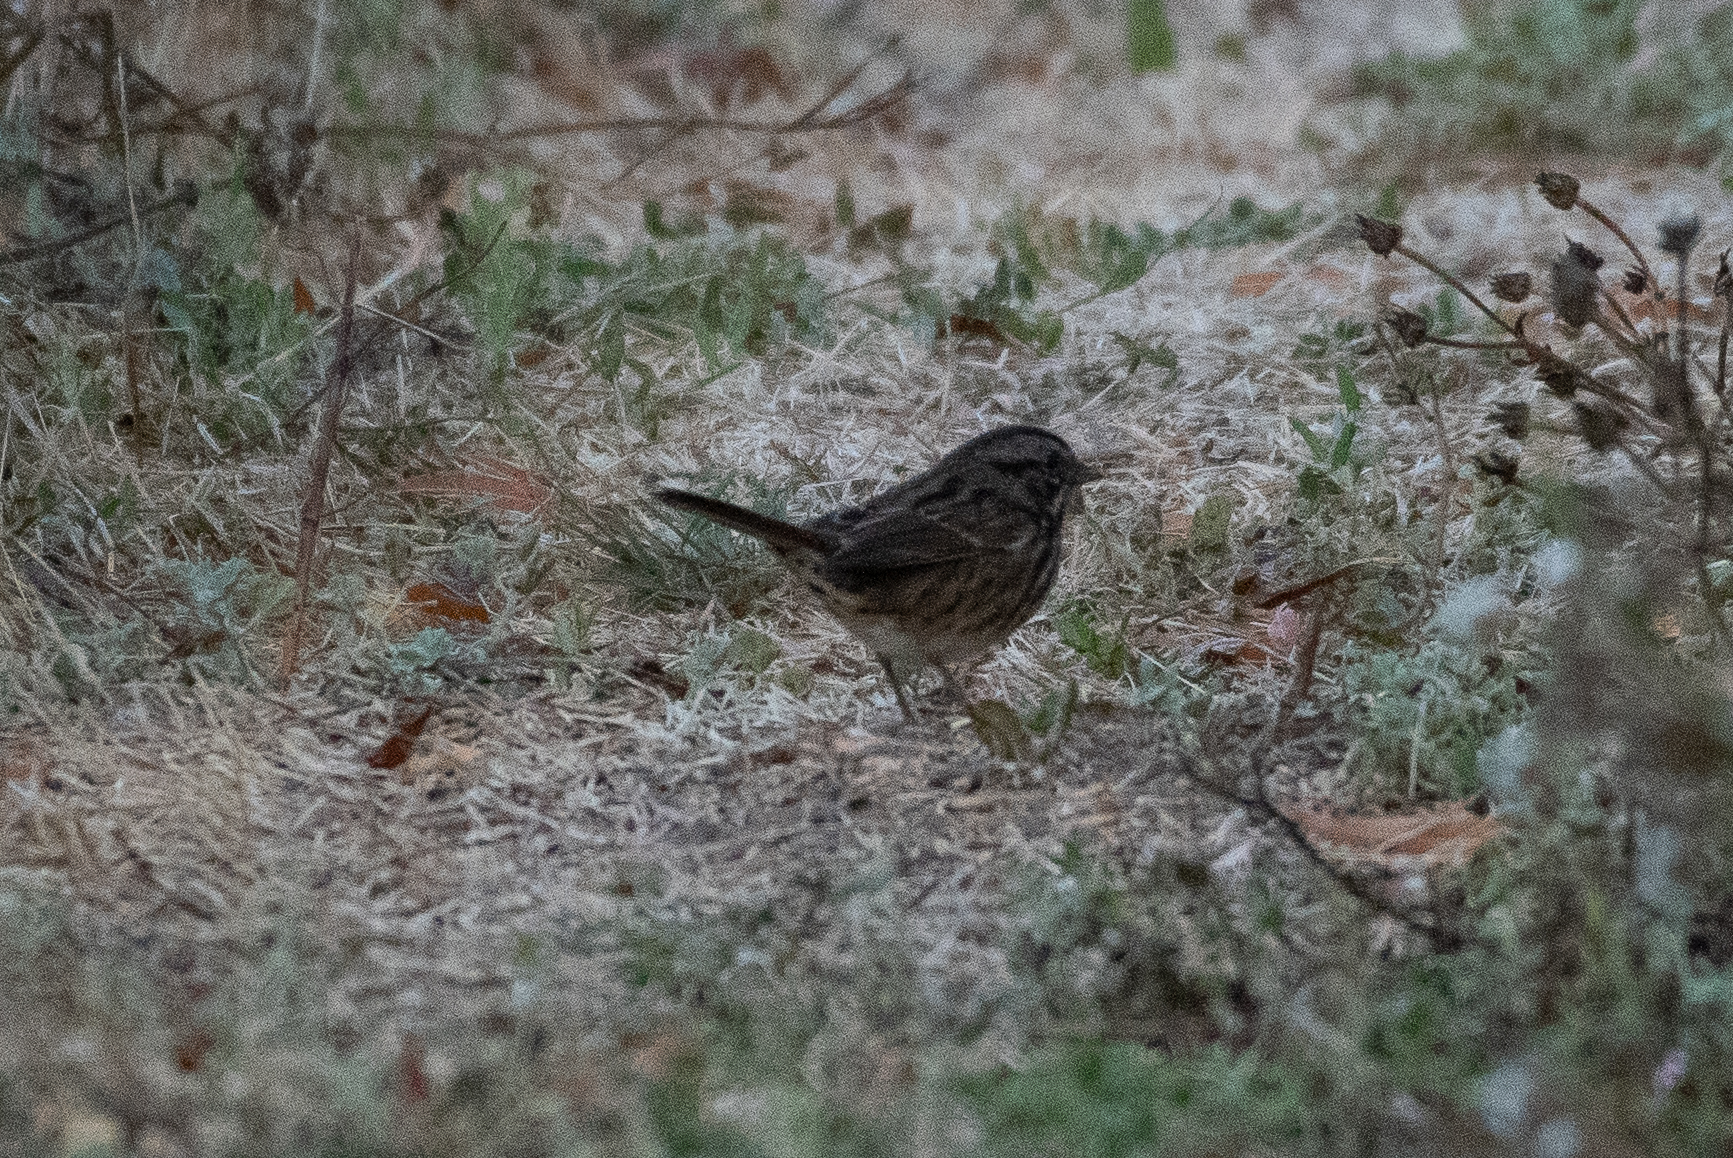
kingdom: Animalia
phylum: Chordata
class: Aves
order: Passeriformes
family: Passerellidae
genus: Melospiza
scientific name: Melospiza melodia
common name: Song sparrow
